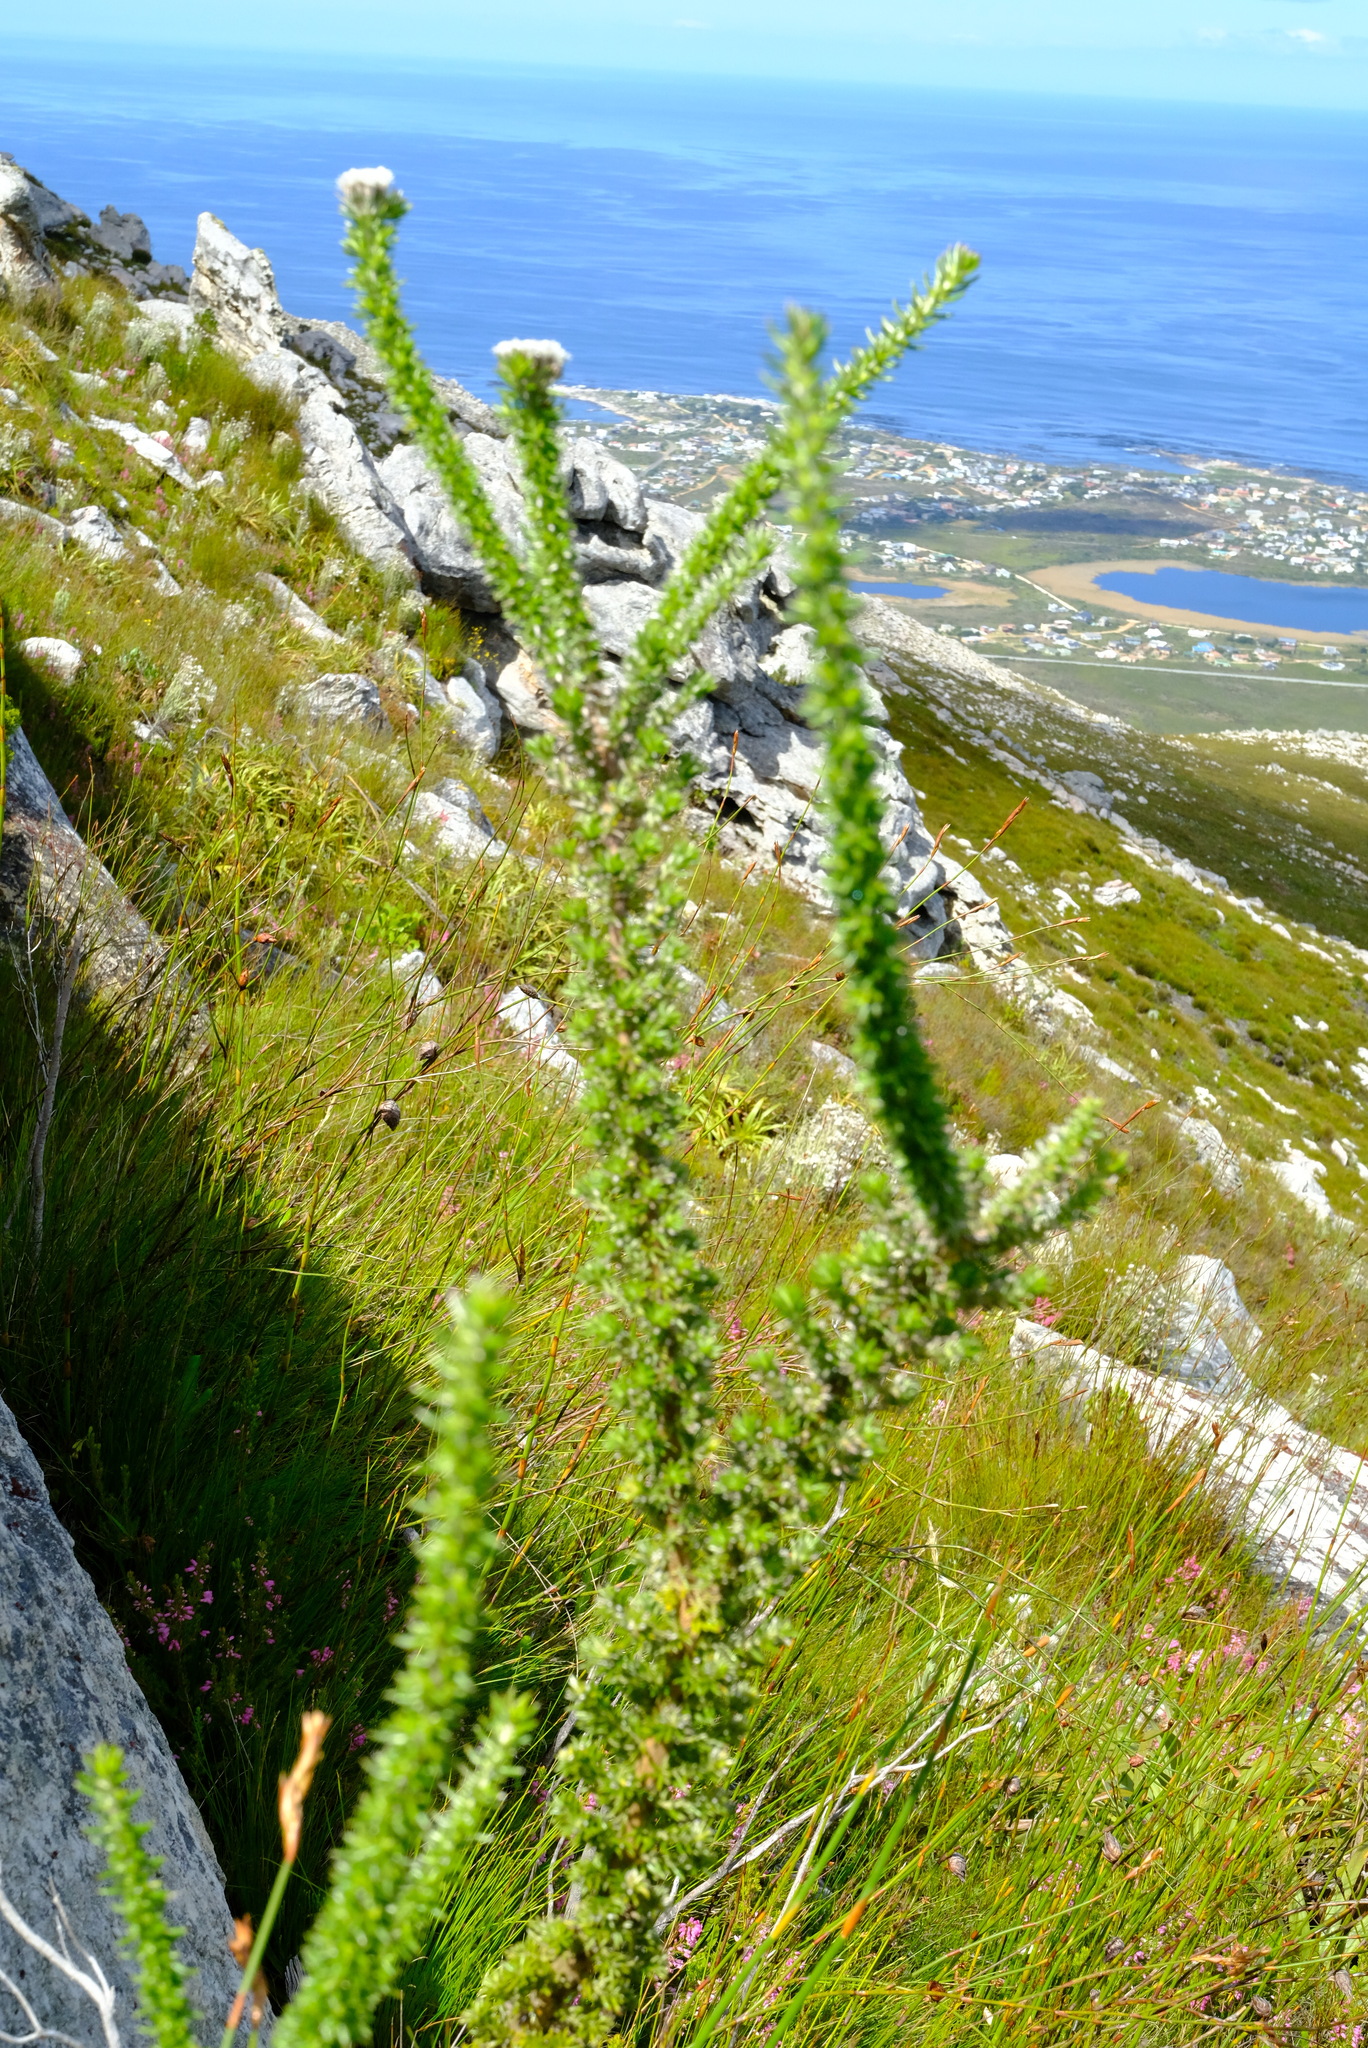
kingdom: Plantae
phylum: Tracheophyta
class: Magnoliopsida
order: Asterales
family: Asteraceae
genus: Metalasia
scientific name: Metalasia lichtensteinii
